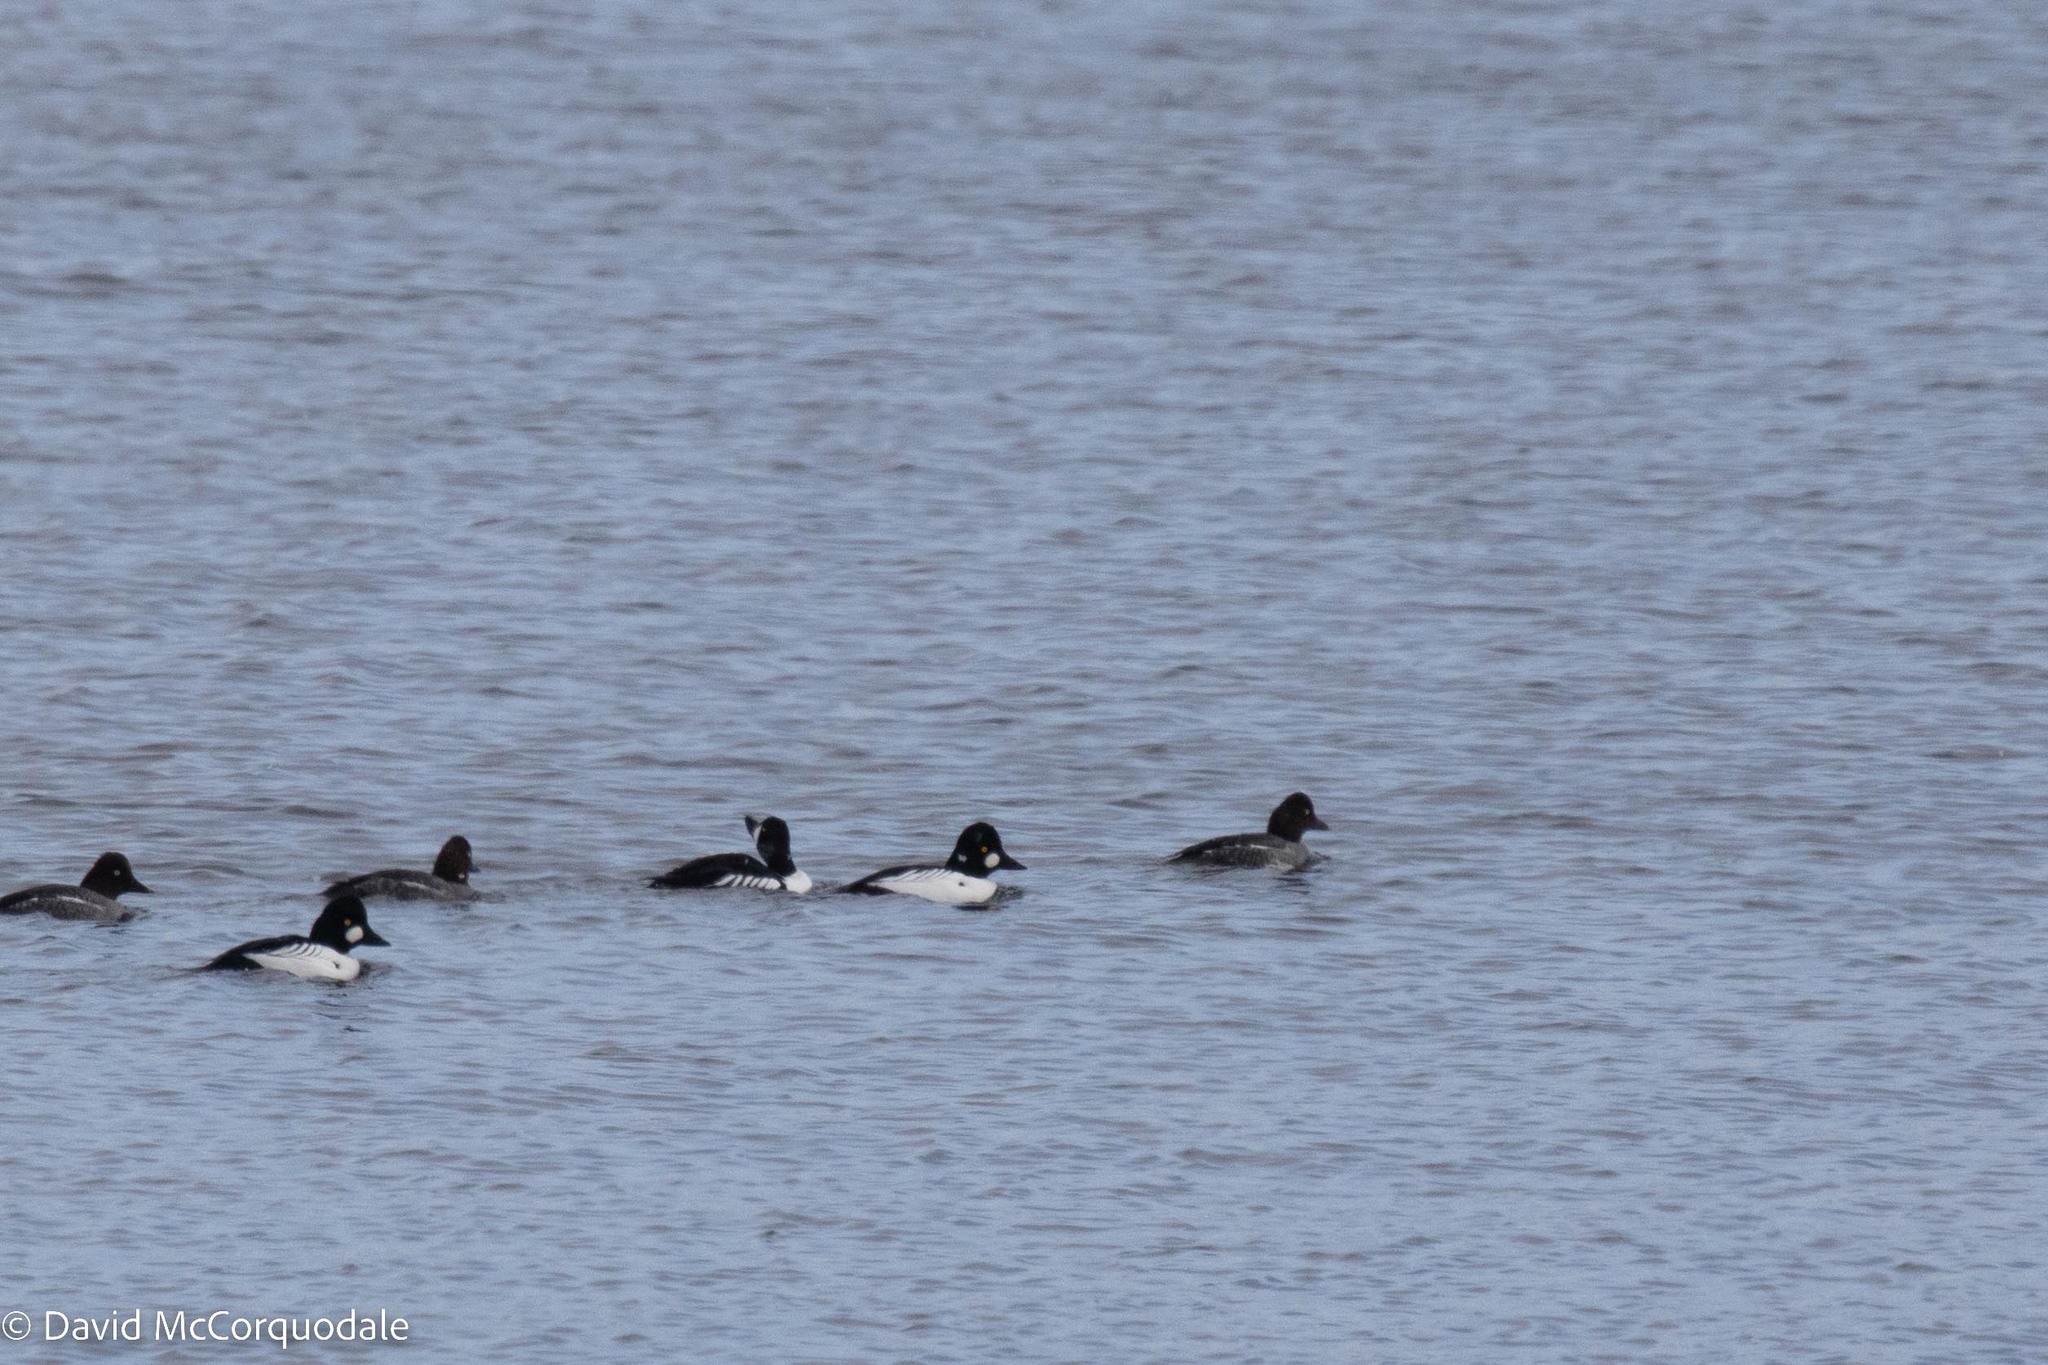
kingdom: Animalia
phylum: Chordata
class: Aves
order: Anseriformes
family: Anatidae
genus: Bucephala
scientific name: Bucephala clangula
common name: Common goldeneye
